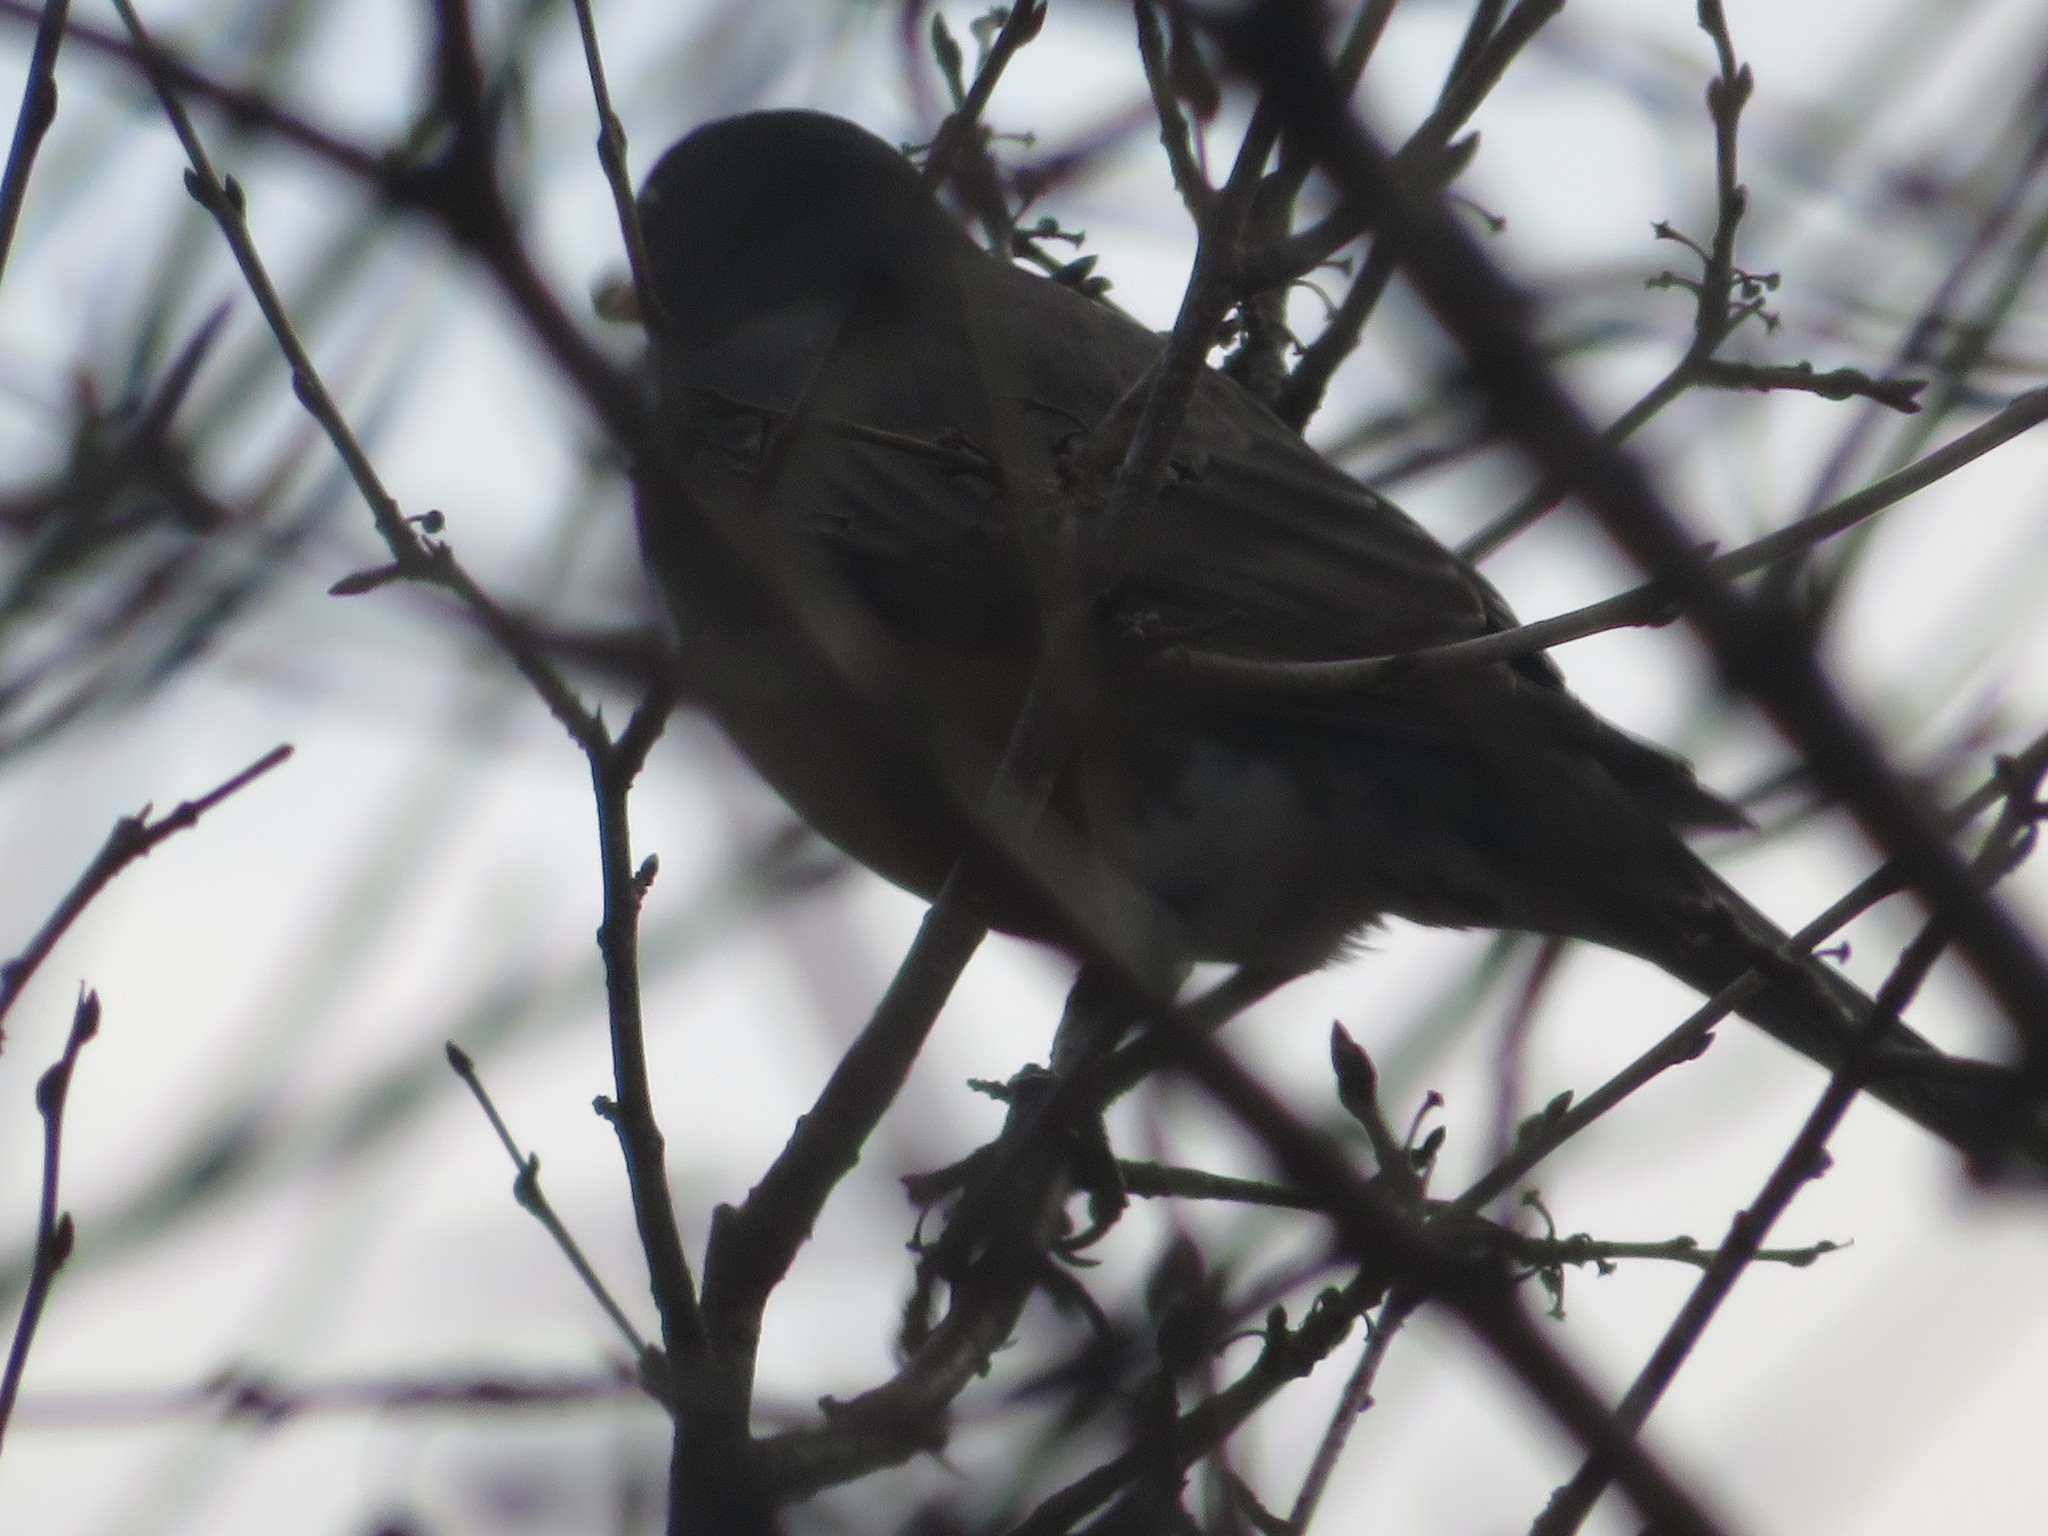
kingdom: Animalia
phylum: Chordata
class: Aves
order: Passeriformes
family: Turdidae
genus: Turdus
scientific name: Turdus migratorius
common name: American robin
